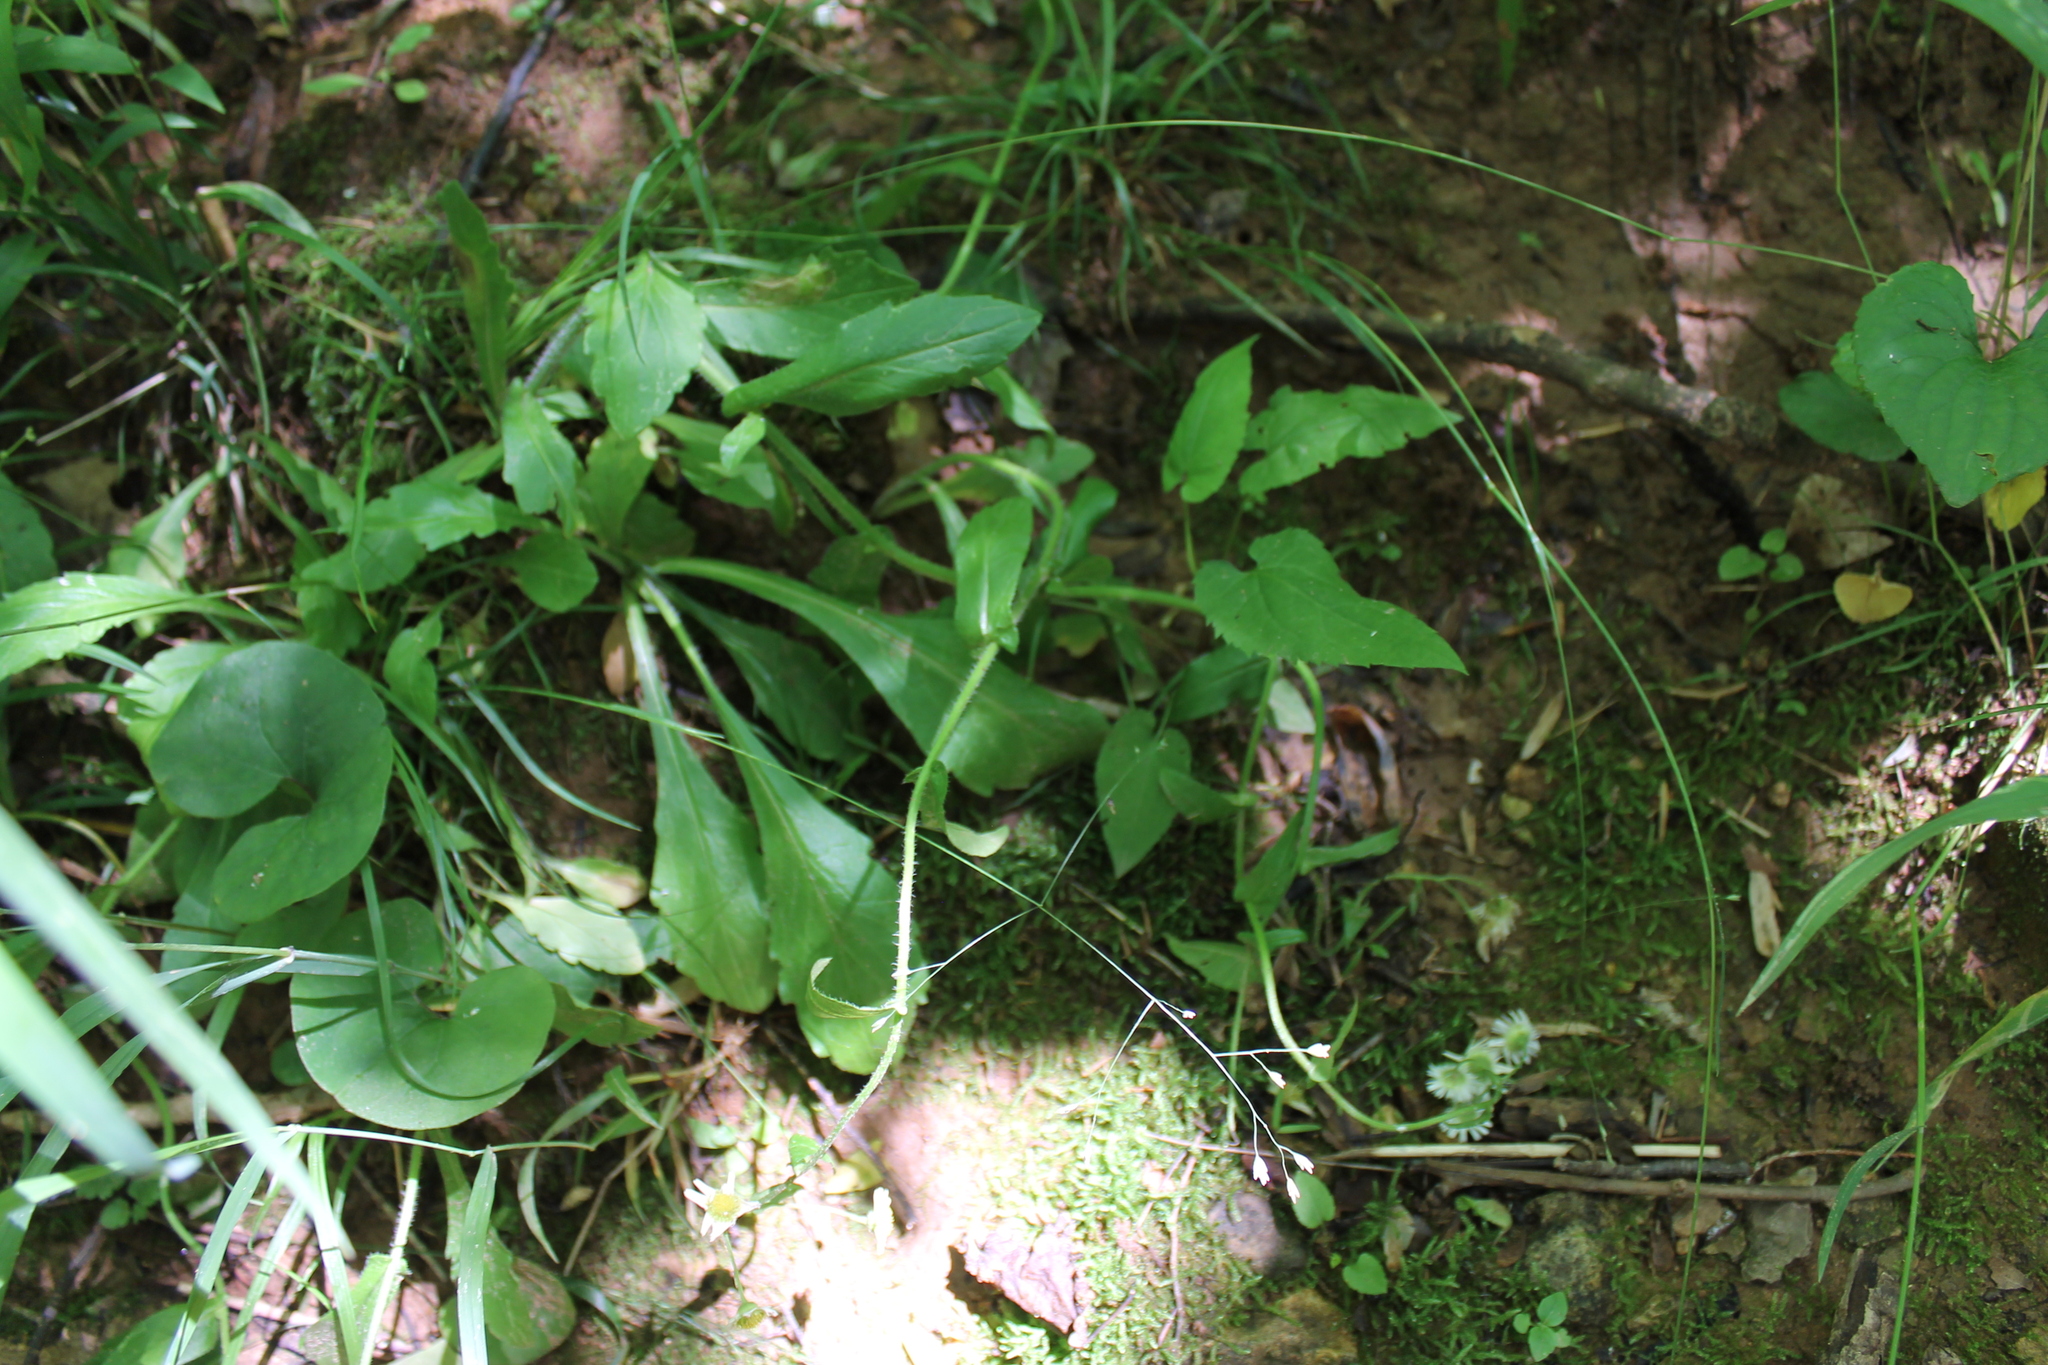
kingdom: Plantae
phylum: Tracheophyta
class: Magnoliopsida
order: Asterales
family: Asteraceae
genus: Erigeron
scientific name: Erigeron philadelphicus
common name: Robin's-plantain
